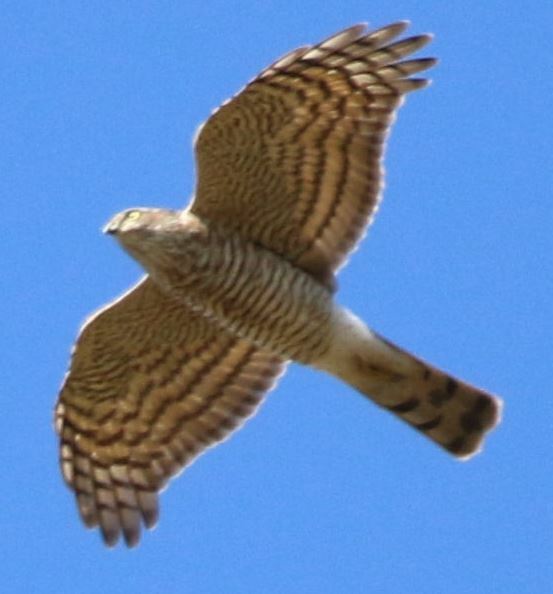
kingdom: Animalia
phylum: Chordata
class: Aves
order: Accipitriformes
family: Accipitridae
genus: Accipiter
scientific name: Accipiter nisus
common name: Eurasian sparrowhawk
